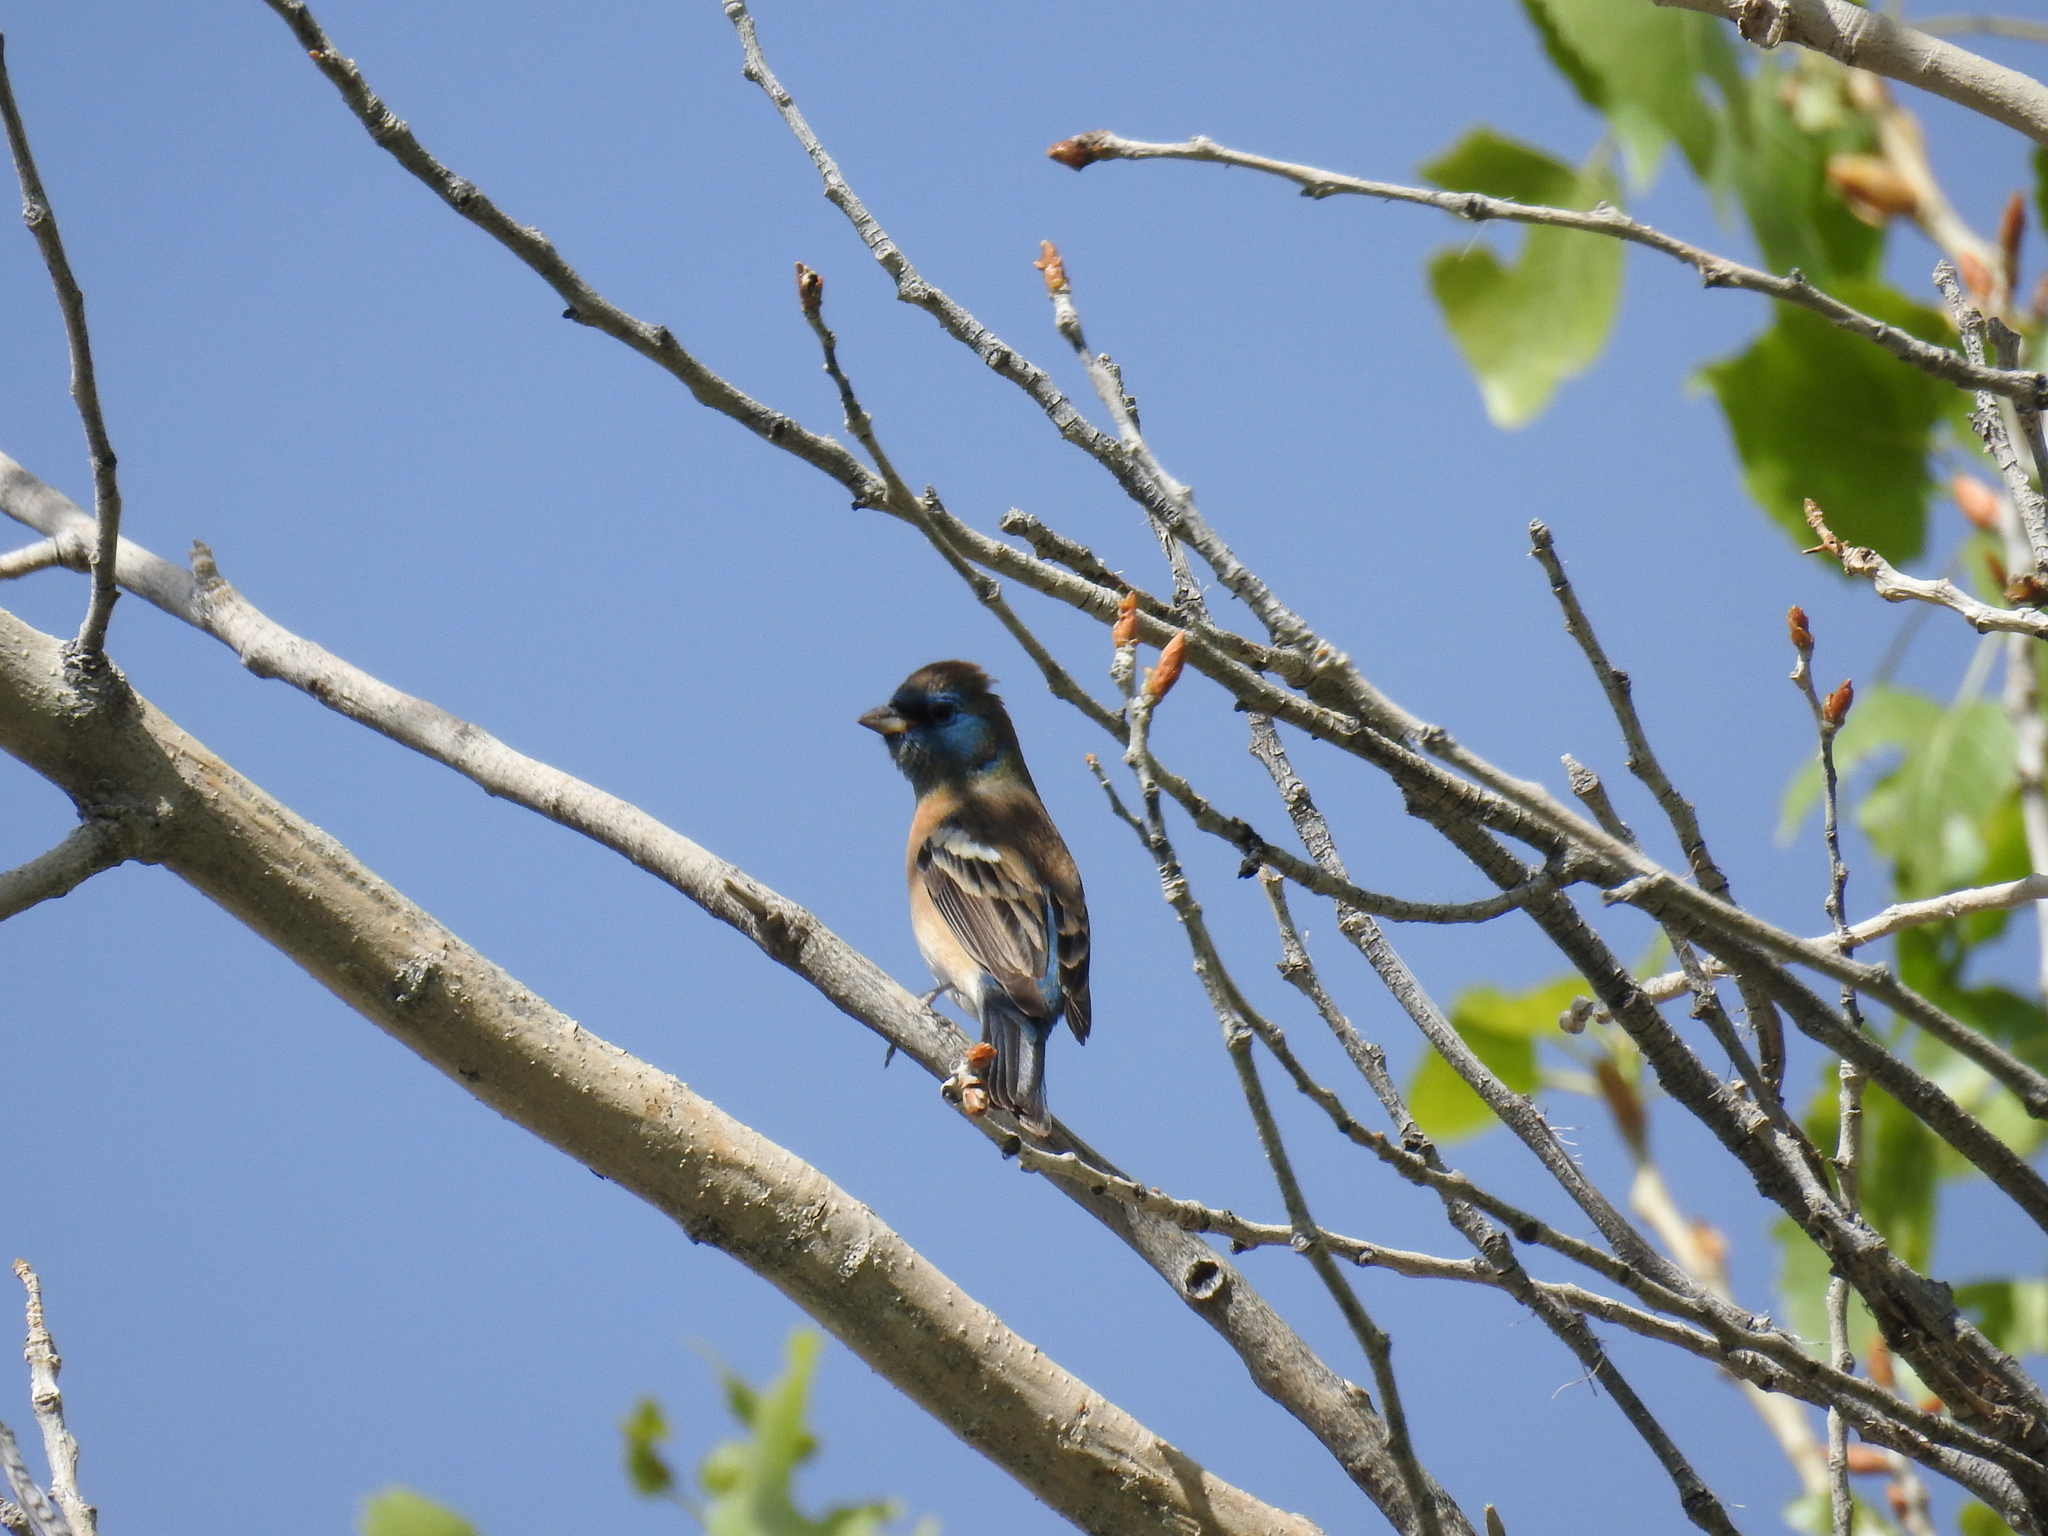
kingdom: Animalia
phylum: Chordata
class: Aves
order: Passeriformes
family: Cardinalidae
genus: Passerina
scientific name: Passerina amoena
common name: Lazuli bunting
